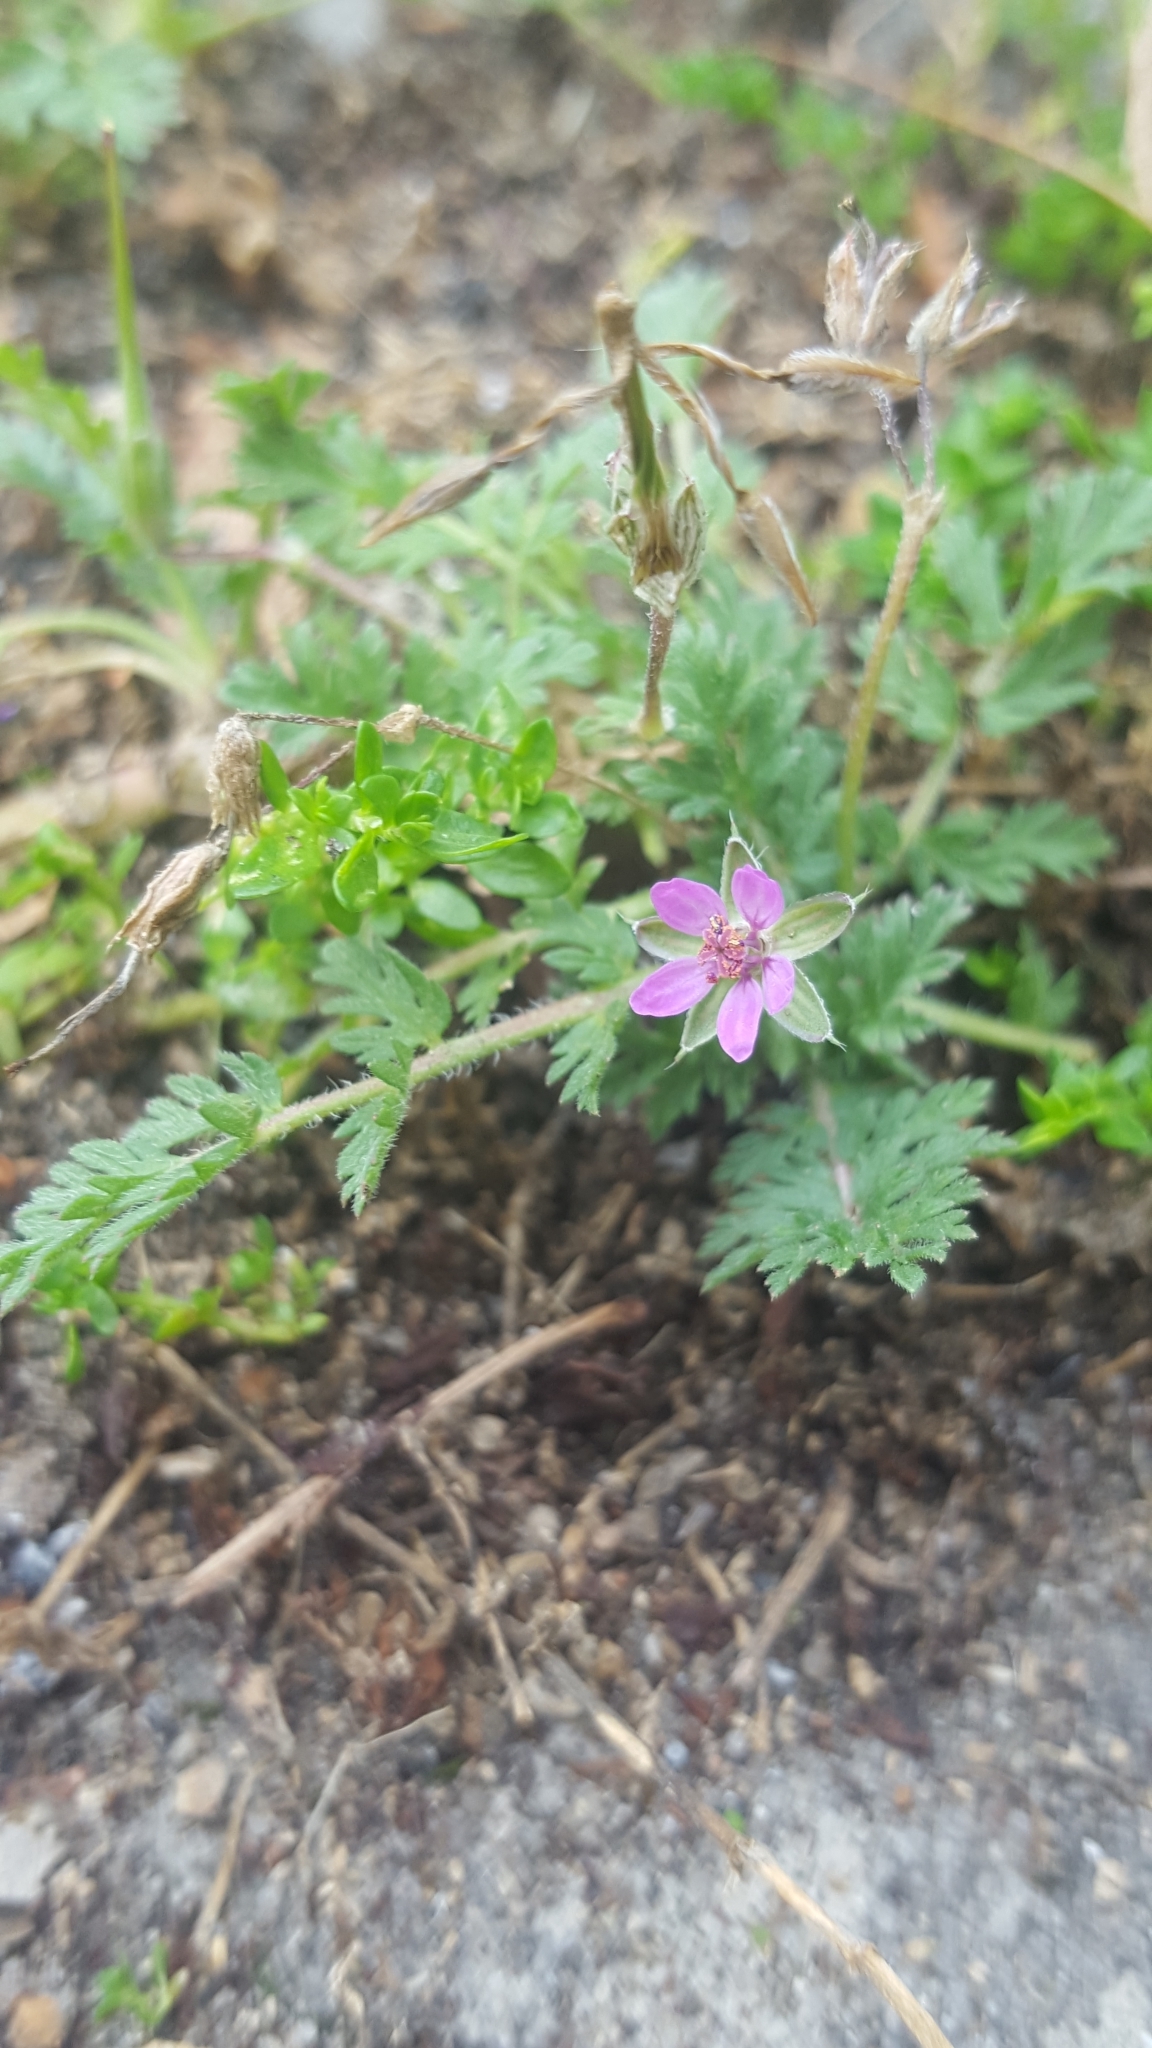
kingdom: Plantae
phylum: Tracheophyta
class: Magnoliopsida
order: Geraniales
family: Geraniaceae
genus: Erodium
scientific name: Erodium cicutarium
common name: Common stork's-bill
